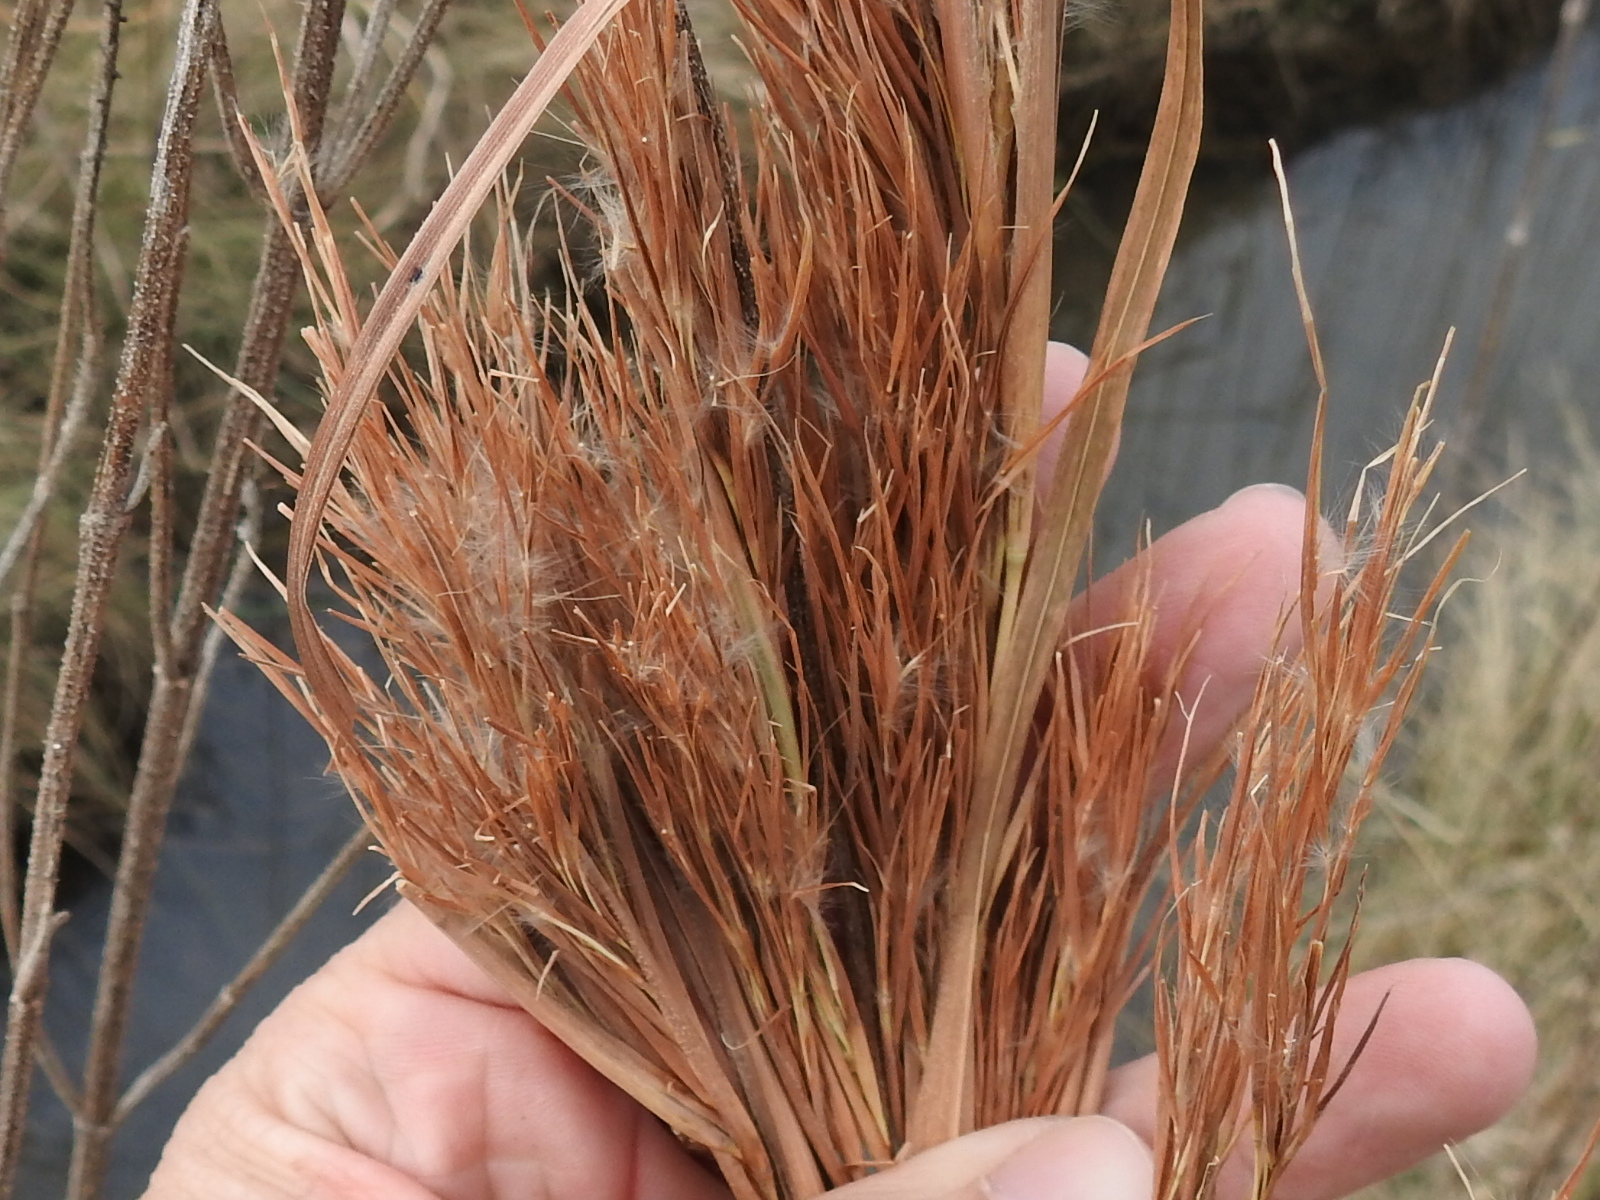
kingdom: Plantae
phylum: Tracheophyta
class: Liliopsida
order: Poales
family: Poaceae
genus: Andropogon
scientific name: Andropogon tenuispatheus
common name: Bushy bluestem
